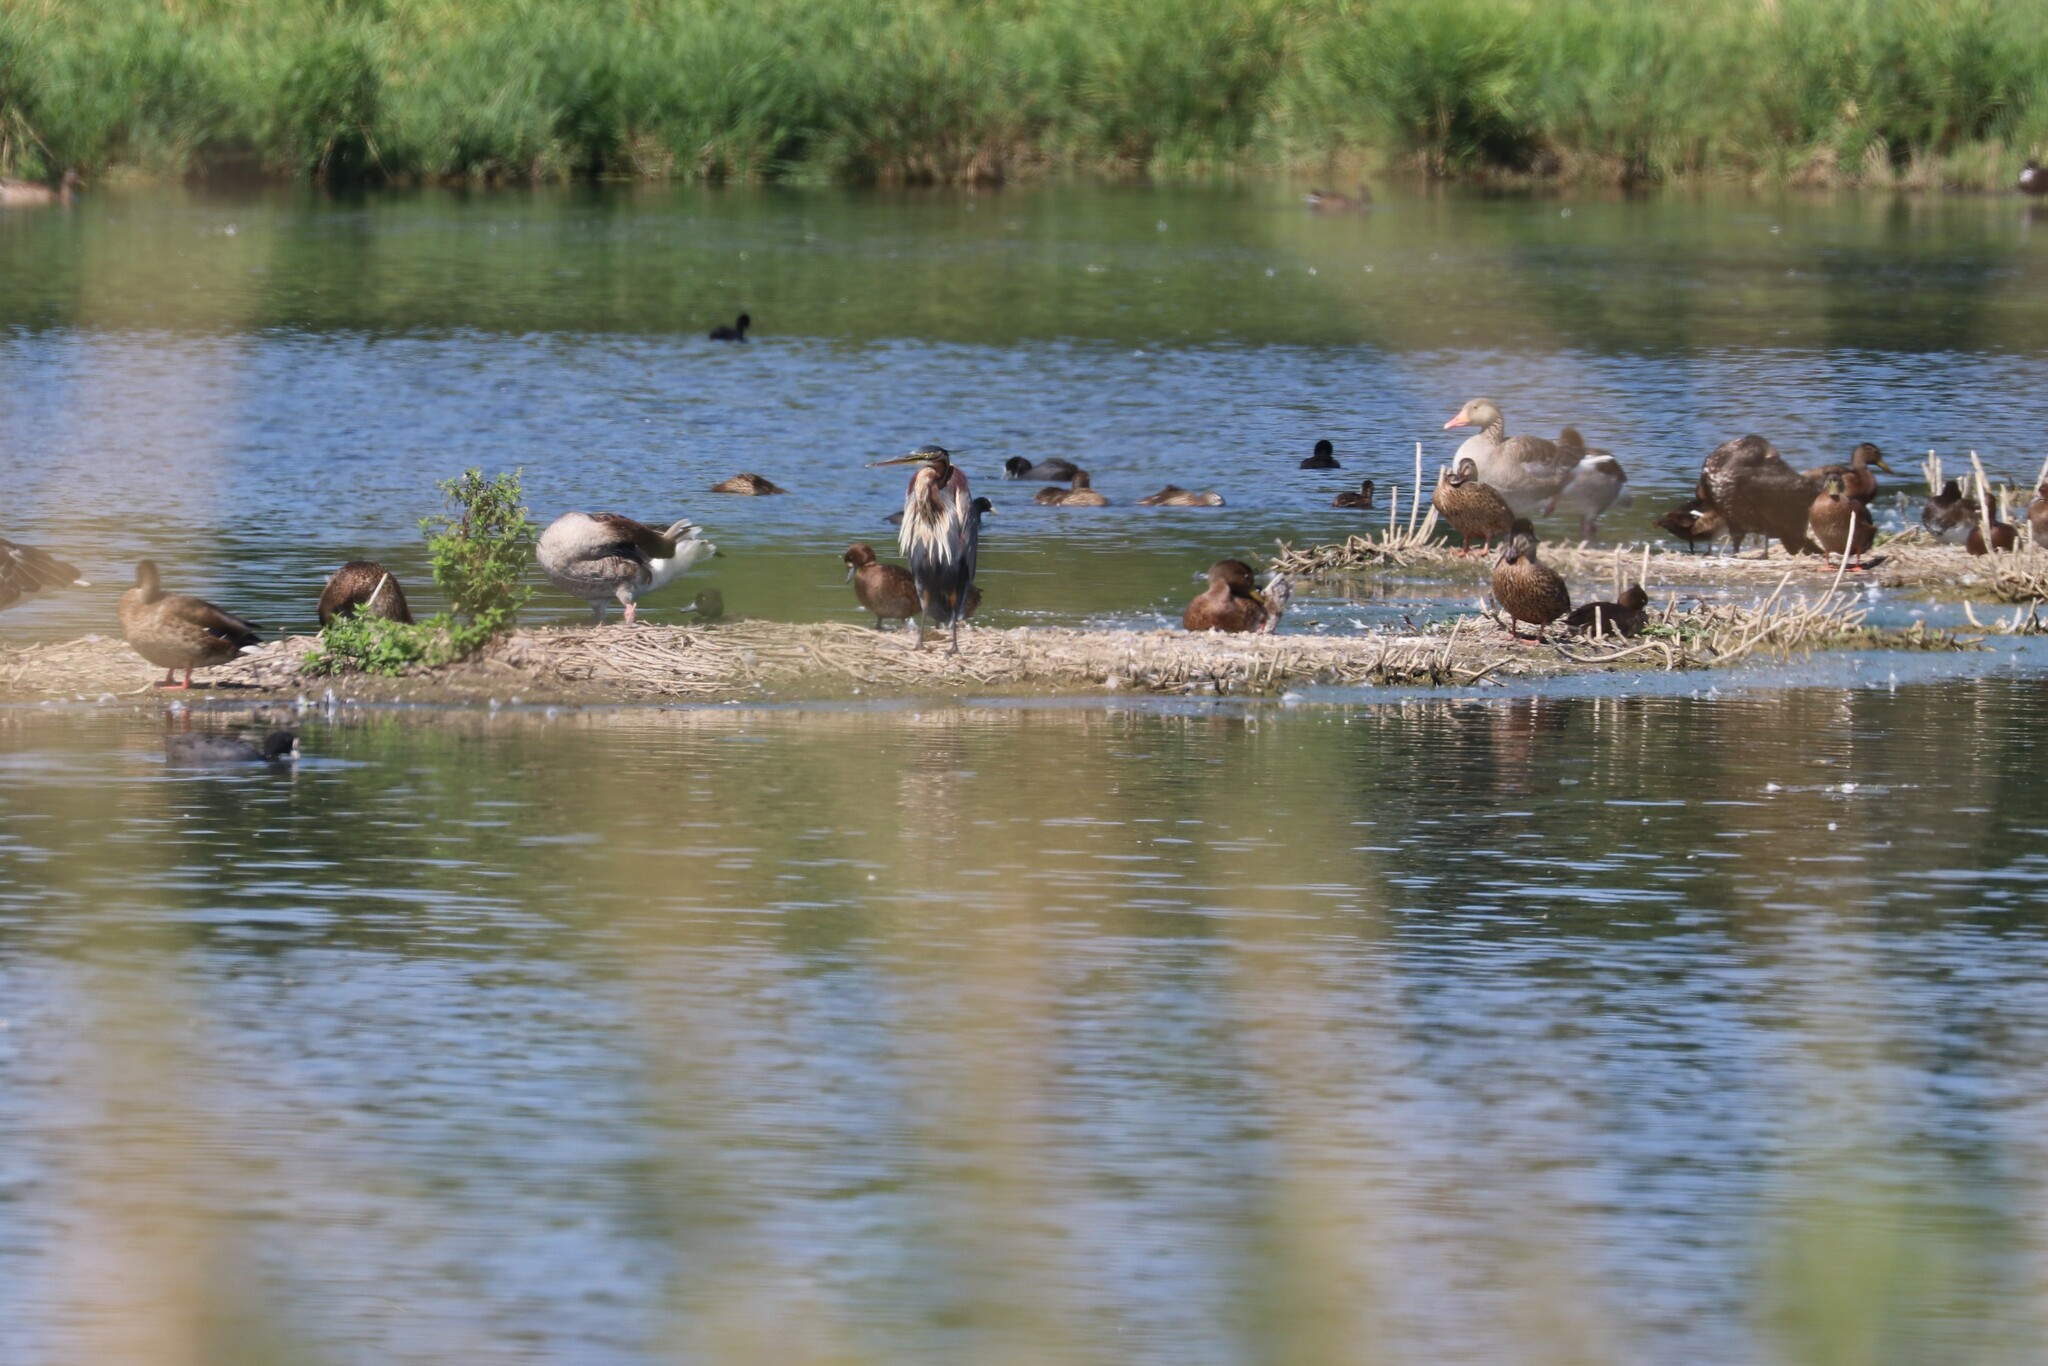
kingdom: Animalia
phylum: Chordata
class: Aves
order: Pelecaniformes
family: Ardeidae
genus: Ardea
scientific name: Ardea purpurea
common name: Purple heron
